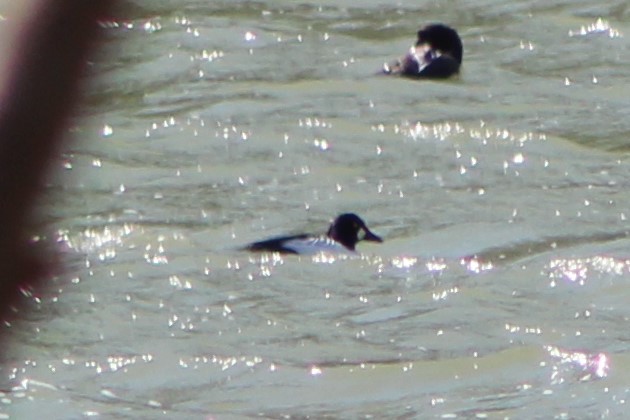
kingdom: Animalia
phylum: Chordata
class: Aves
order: Anseriformes
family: Anatidae
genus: Bucephala
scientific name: Bucephala clangula
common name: Common goldeneye
